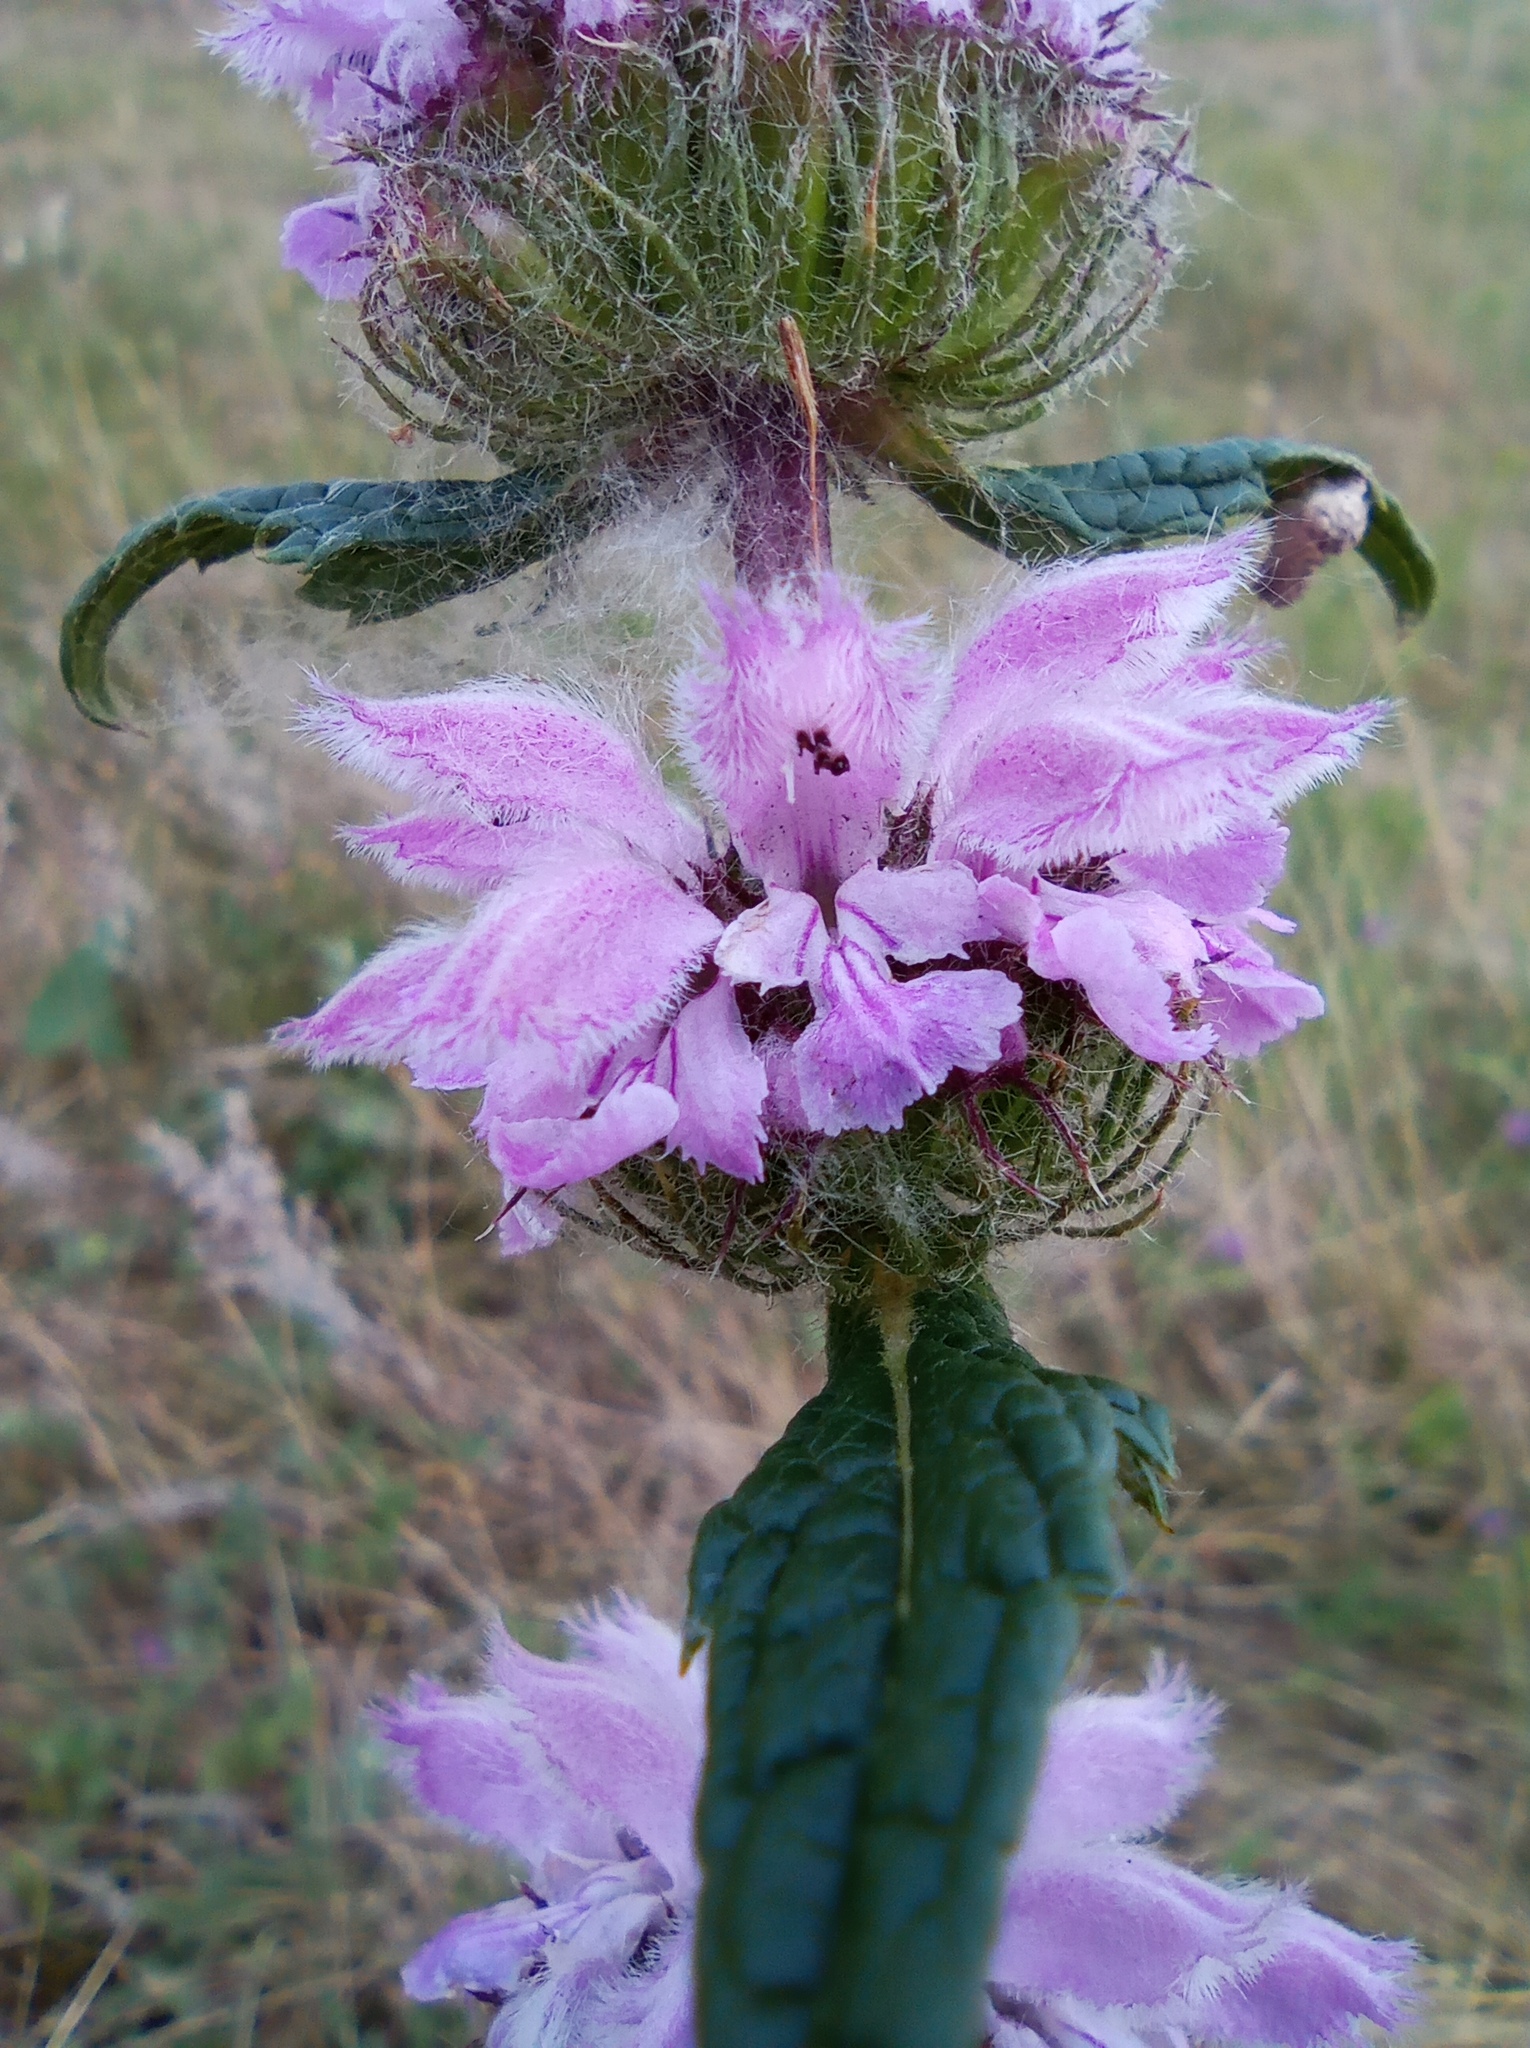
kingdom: Plantae
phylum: Tracheophyta
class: Magnoliopsida
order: Lamiales
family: Lamiaceae
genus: Phlomoides
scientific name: Phlomoides tuberosa
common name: Tuberous jerusalem sage
